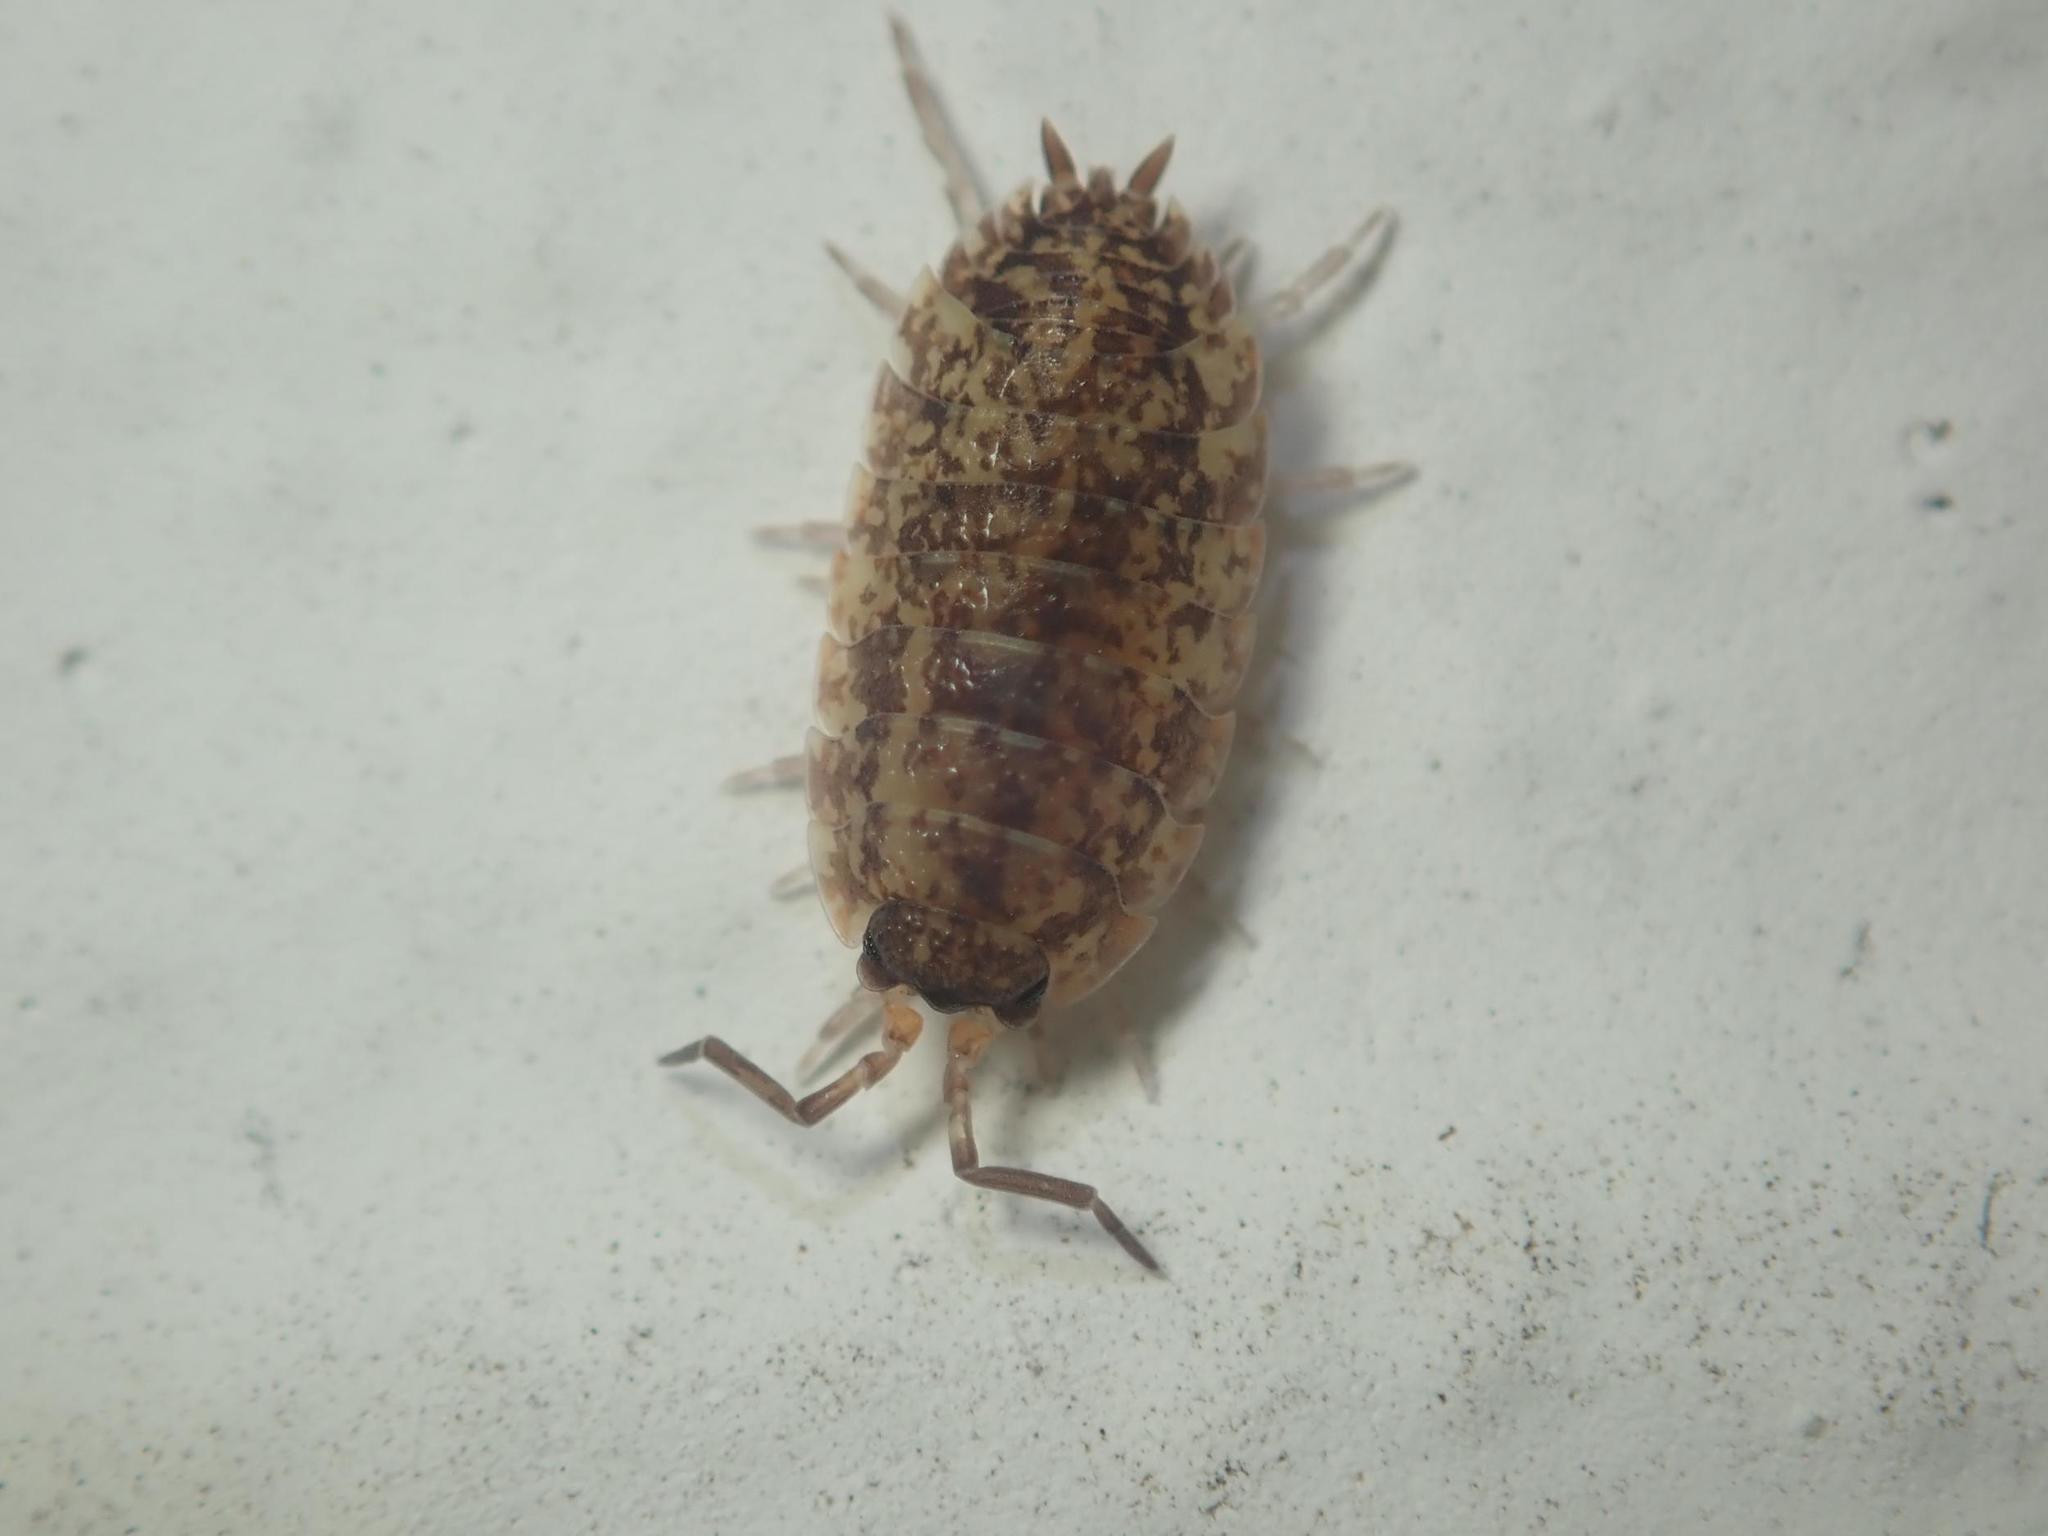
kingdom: Animalia
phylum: Arthropoda
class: Malacostraca
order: Isopoda
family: Porcellionidae
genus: Porcellio
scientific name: Porcellio scaber
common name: Common rough woodlouse
